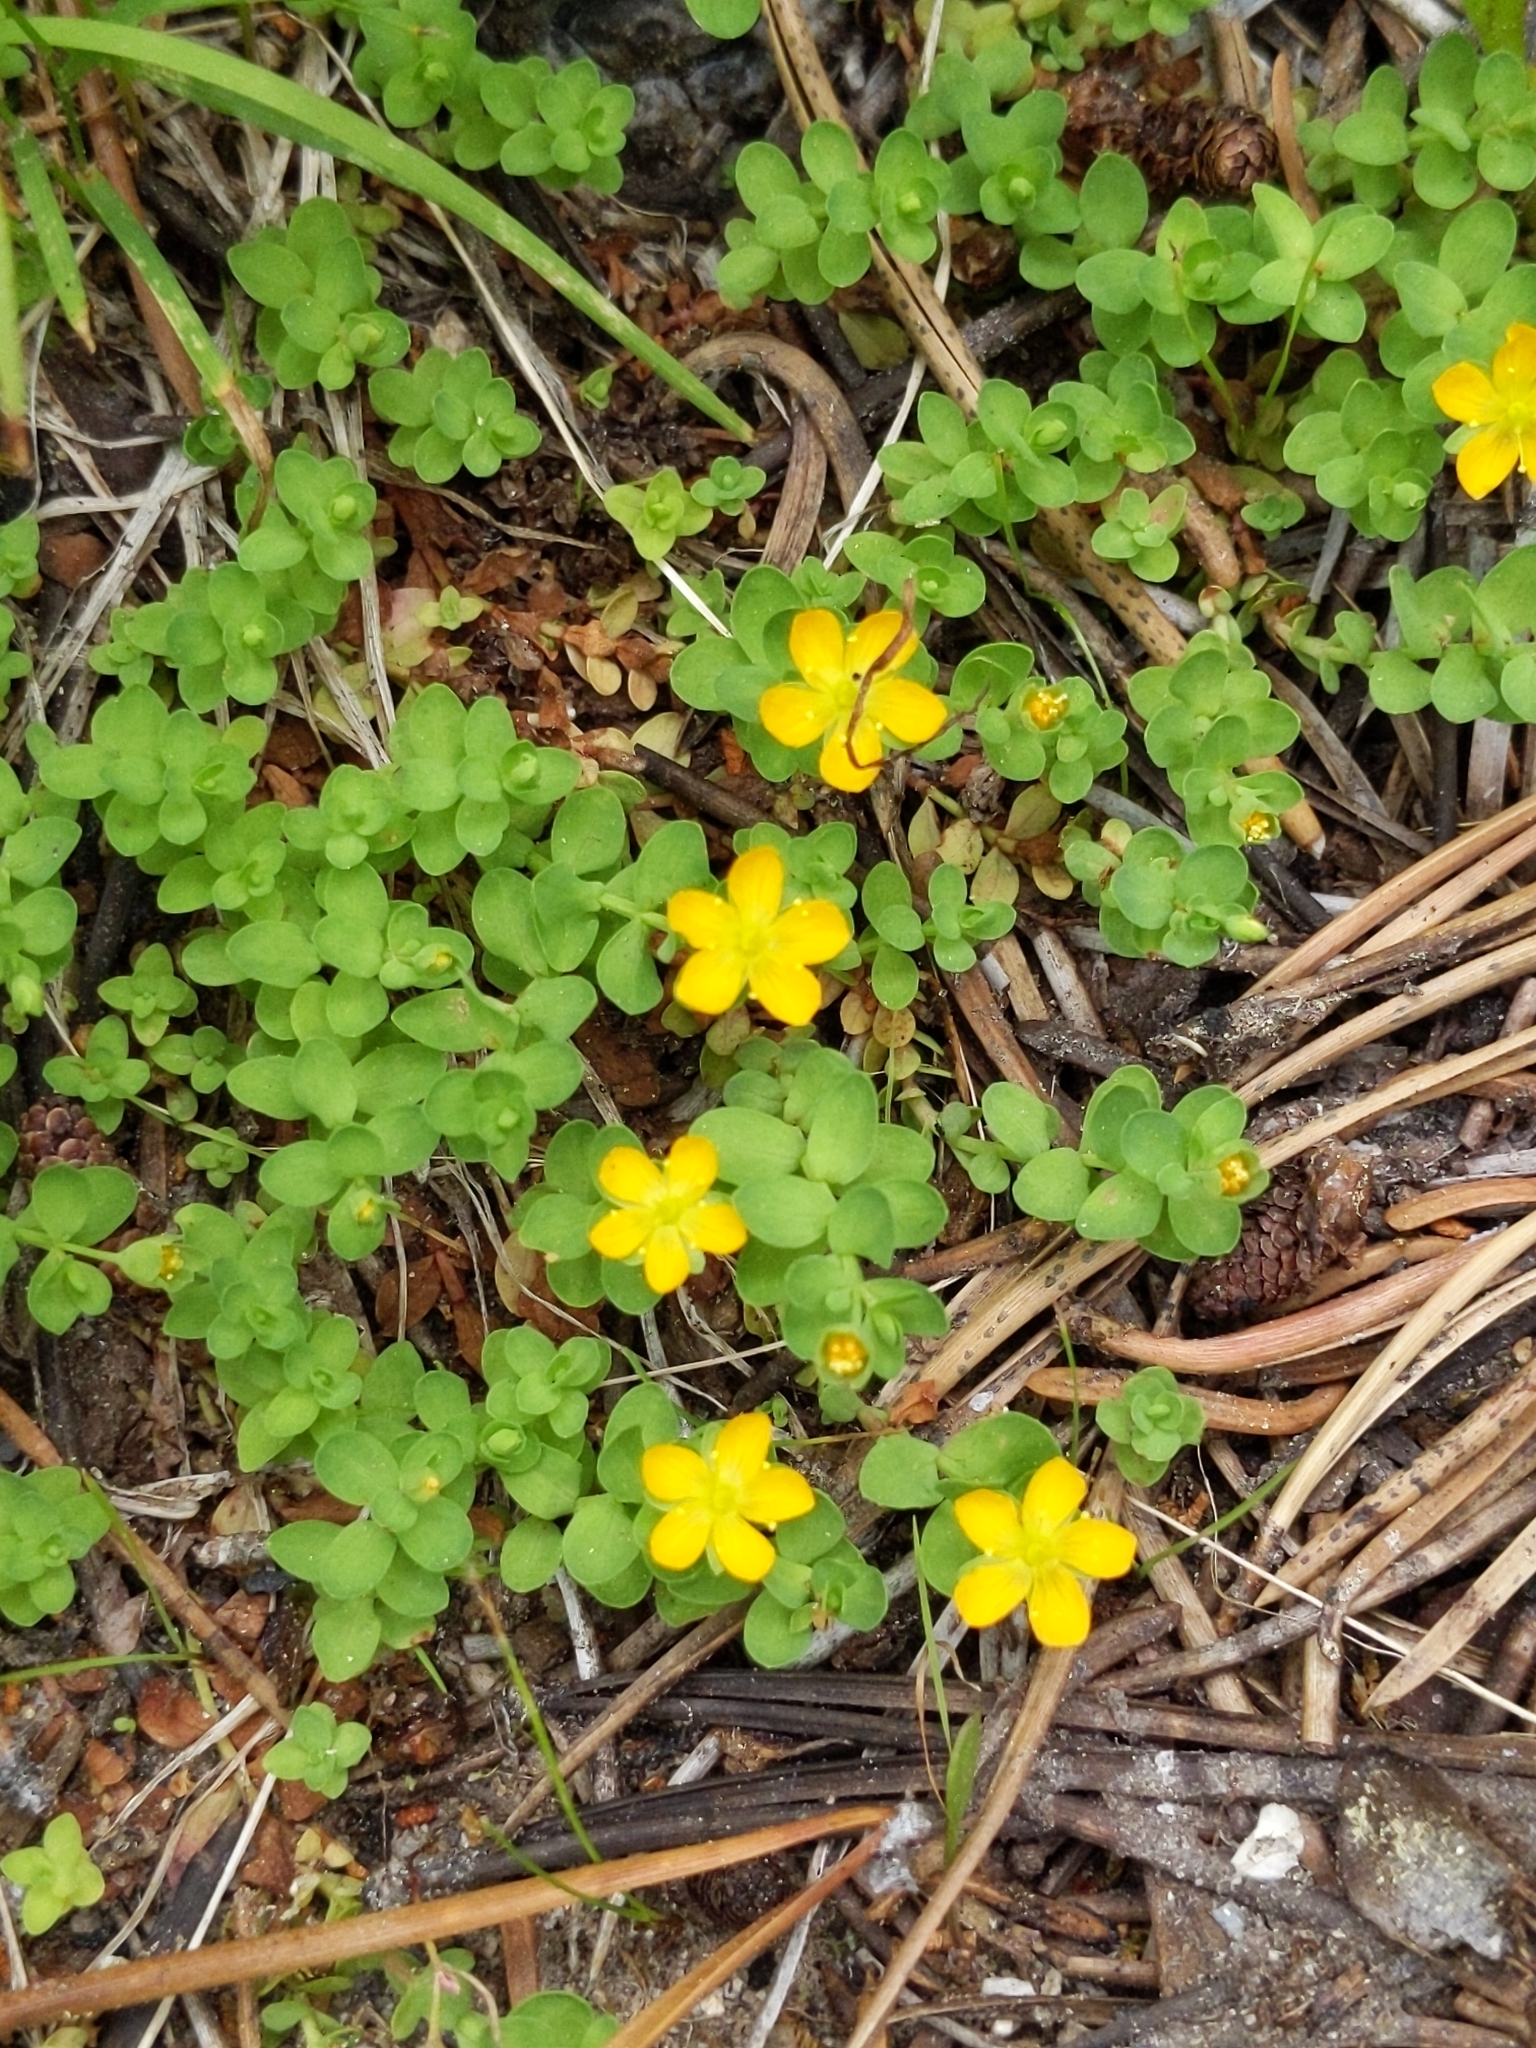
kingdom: Plantae
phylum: Tracheophyta
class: Magnoliopsida
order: Malpighiales
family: Hypericaceae
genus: Hypericum
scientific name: Hypericum anagalloides
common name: Bog st. john's-wort
